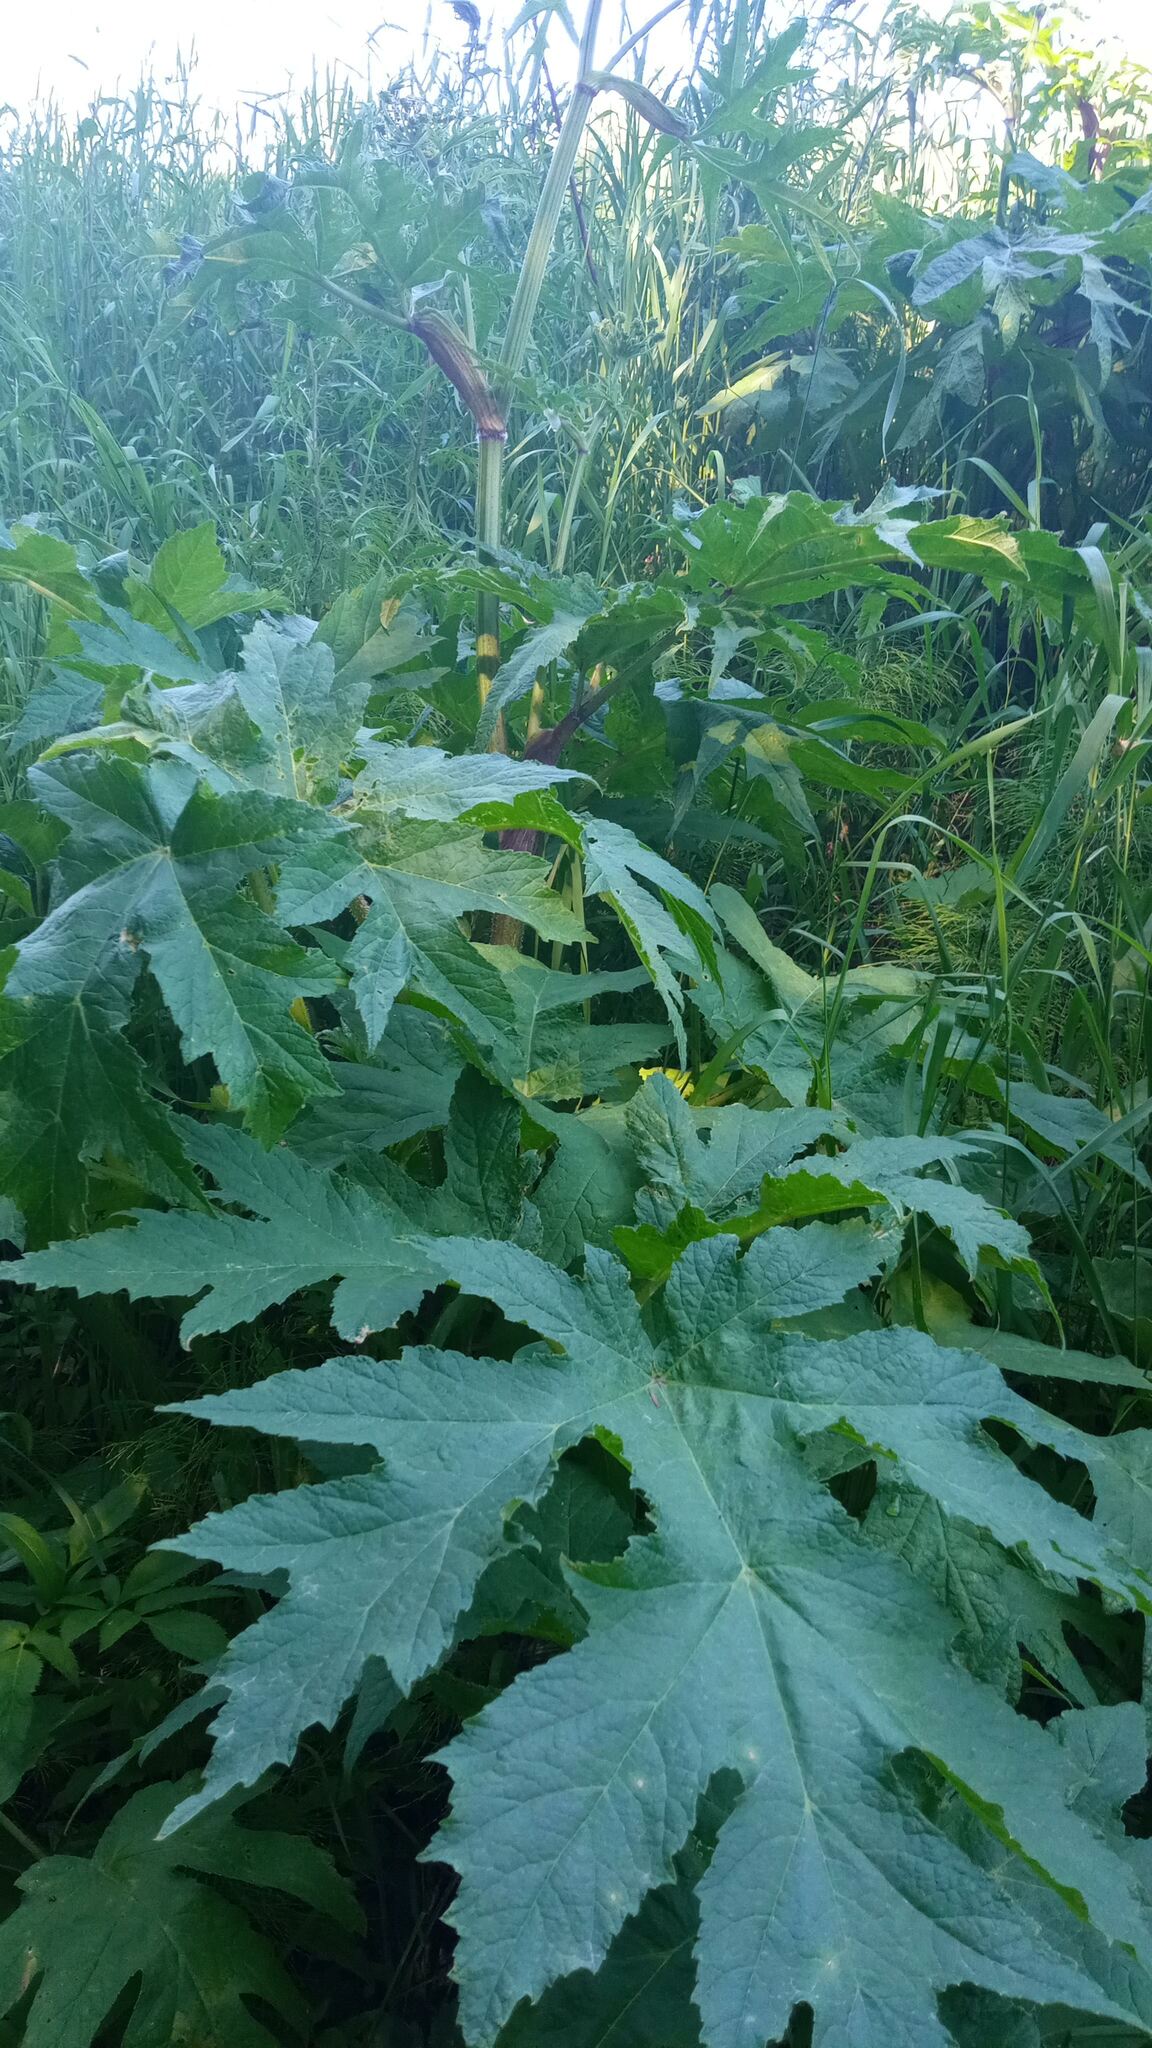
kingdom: Plantae
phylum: Tracheophyta
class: Magnoliopsida
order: Apiales
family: Apiaceae
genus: Heracleum
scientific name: Heracleum dissectum
